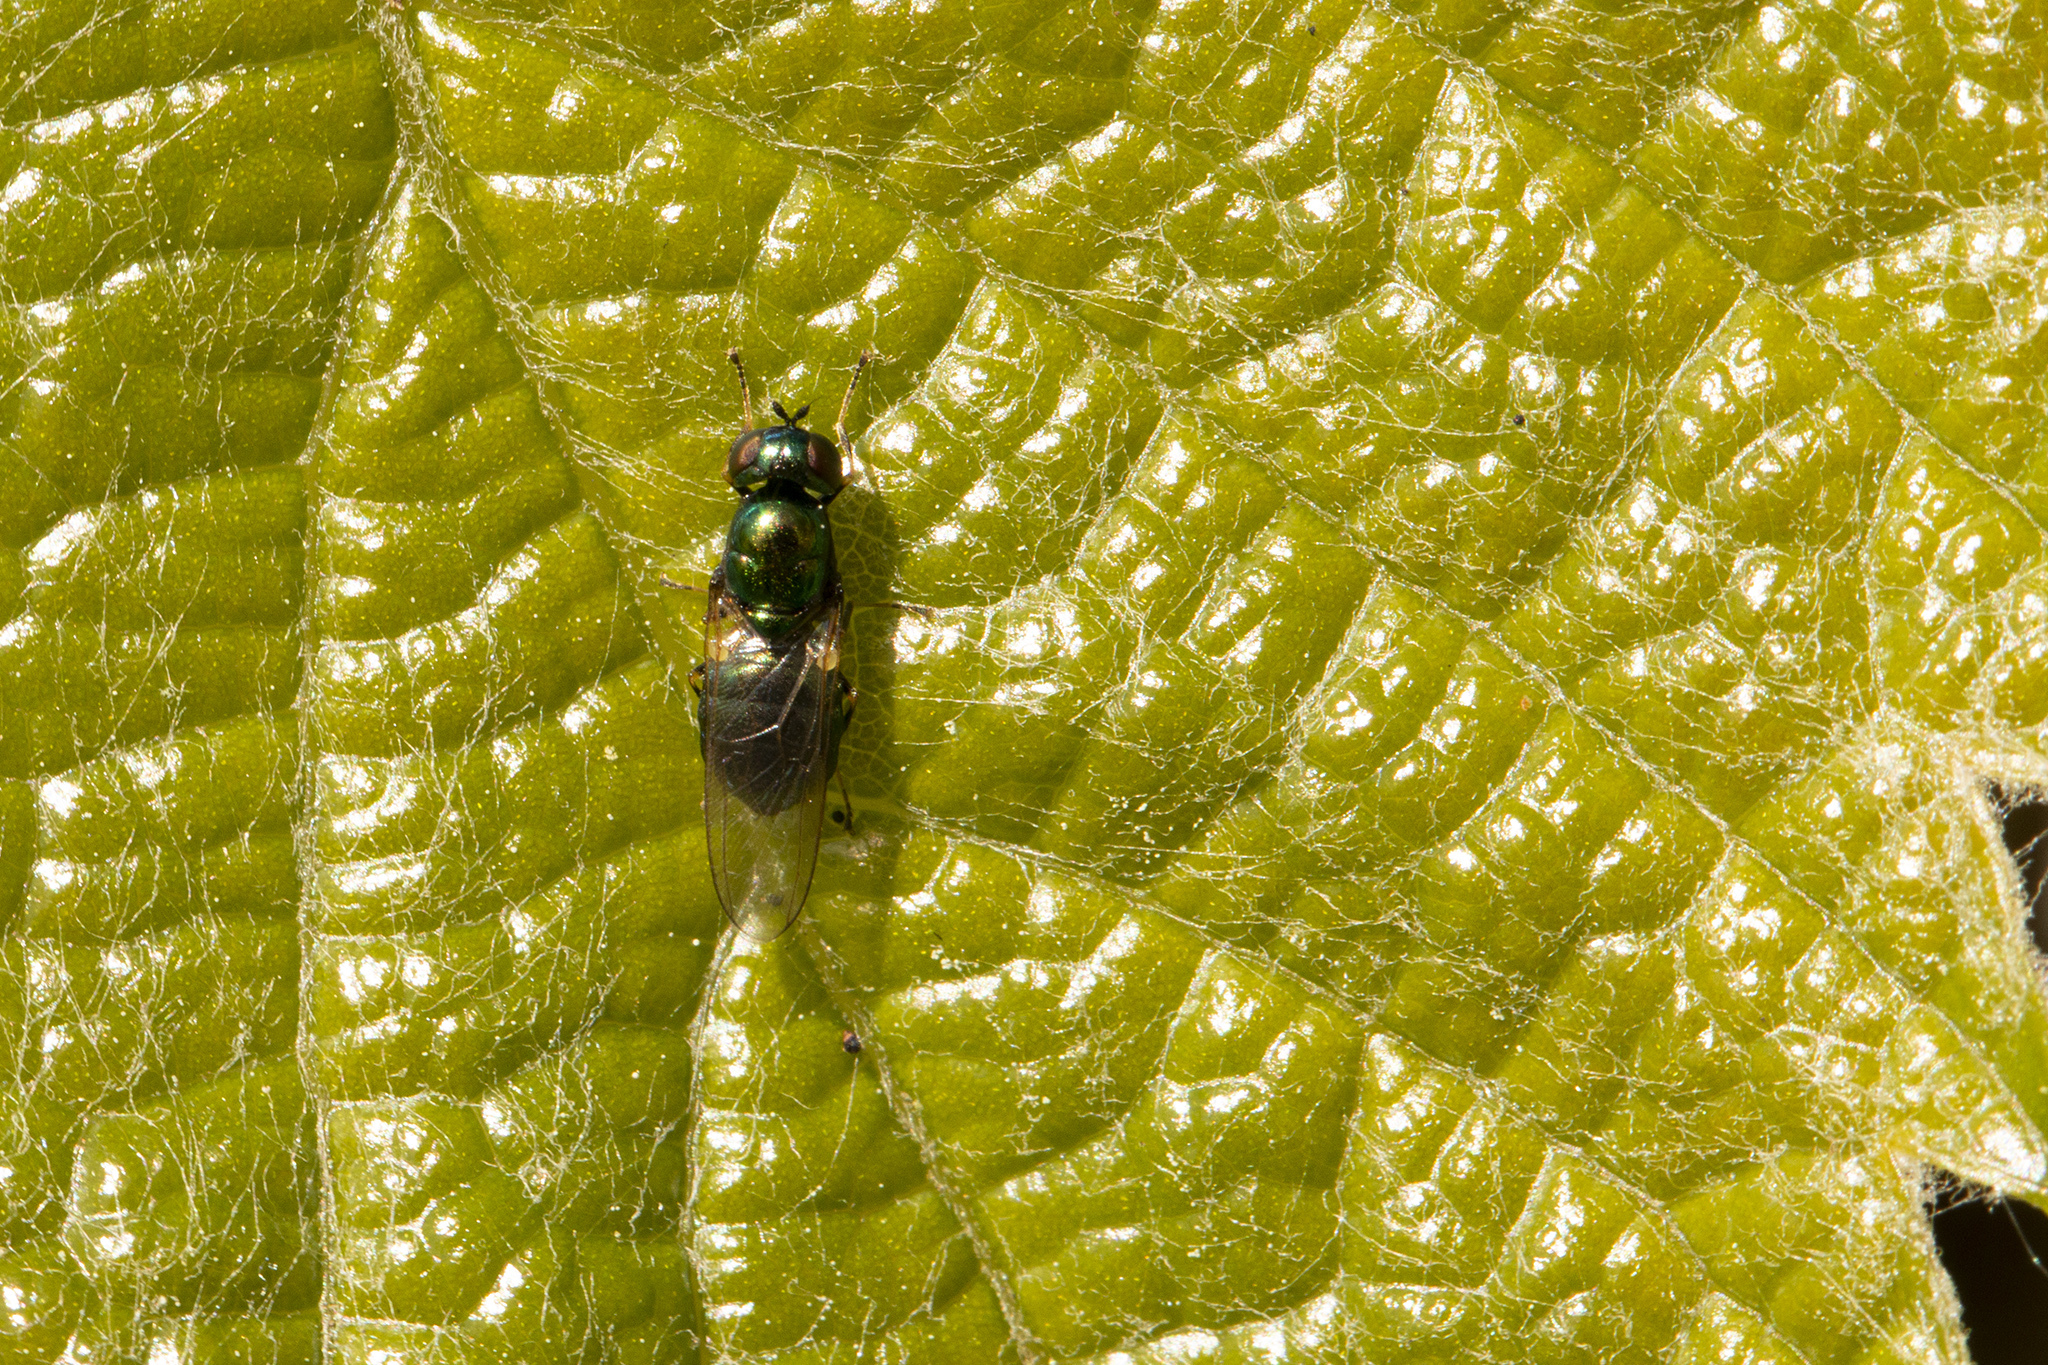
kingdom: Animalia
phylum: Arthropoda
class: Insecta
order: Diptera
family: Stratiomyidae
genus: Microchrysa
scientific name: Microchrysa polita
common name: Black-horned gem
